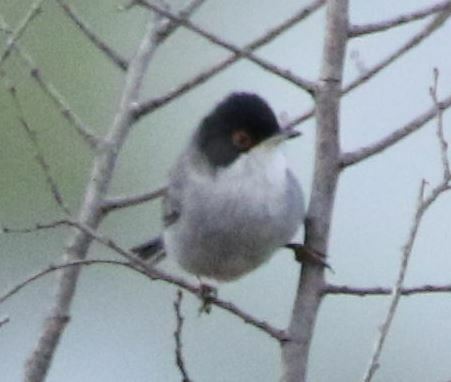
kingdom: Animalia
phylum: Chordata
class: Aves
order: Passeriformes
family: Sylviidae
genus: Curruca
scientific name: Curruca melanocephala
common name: Sardinian warbler
